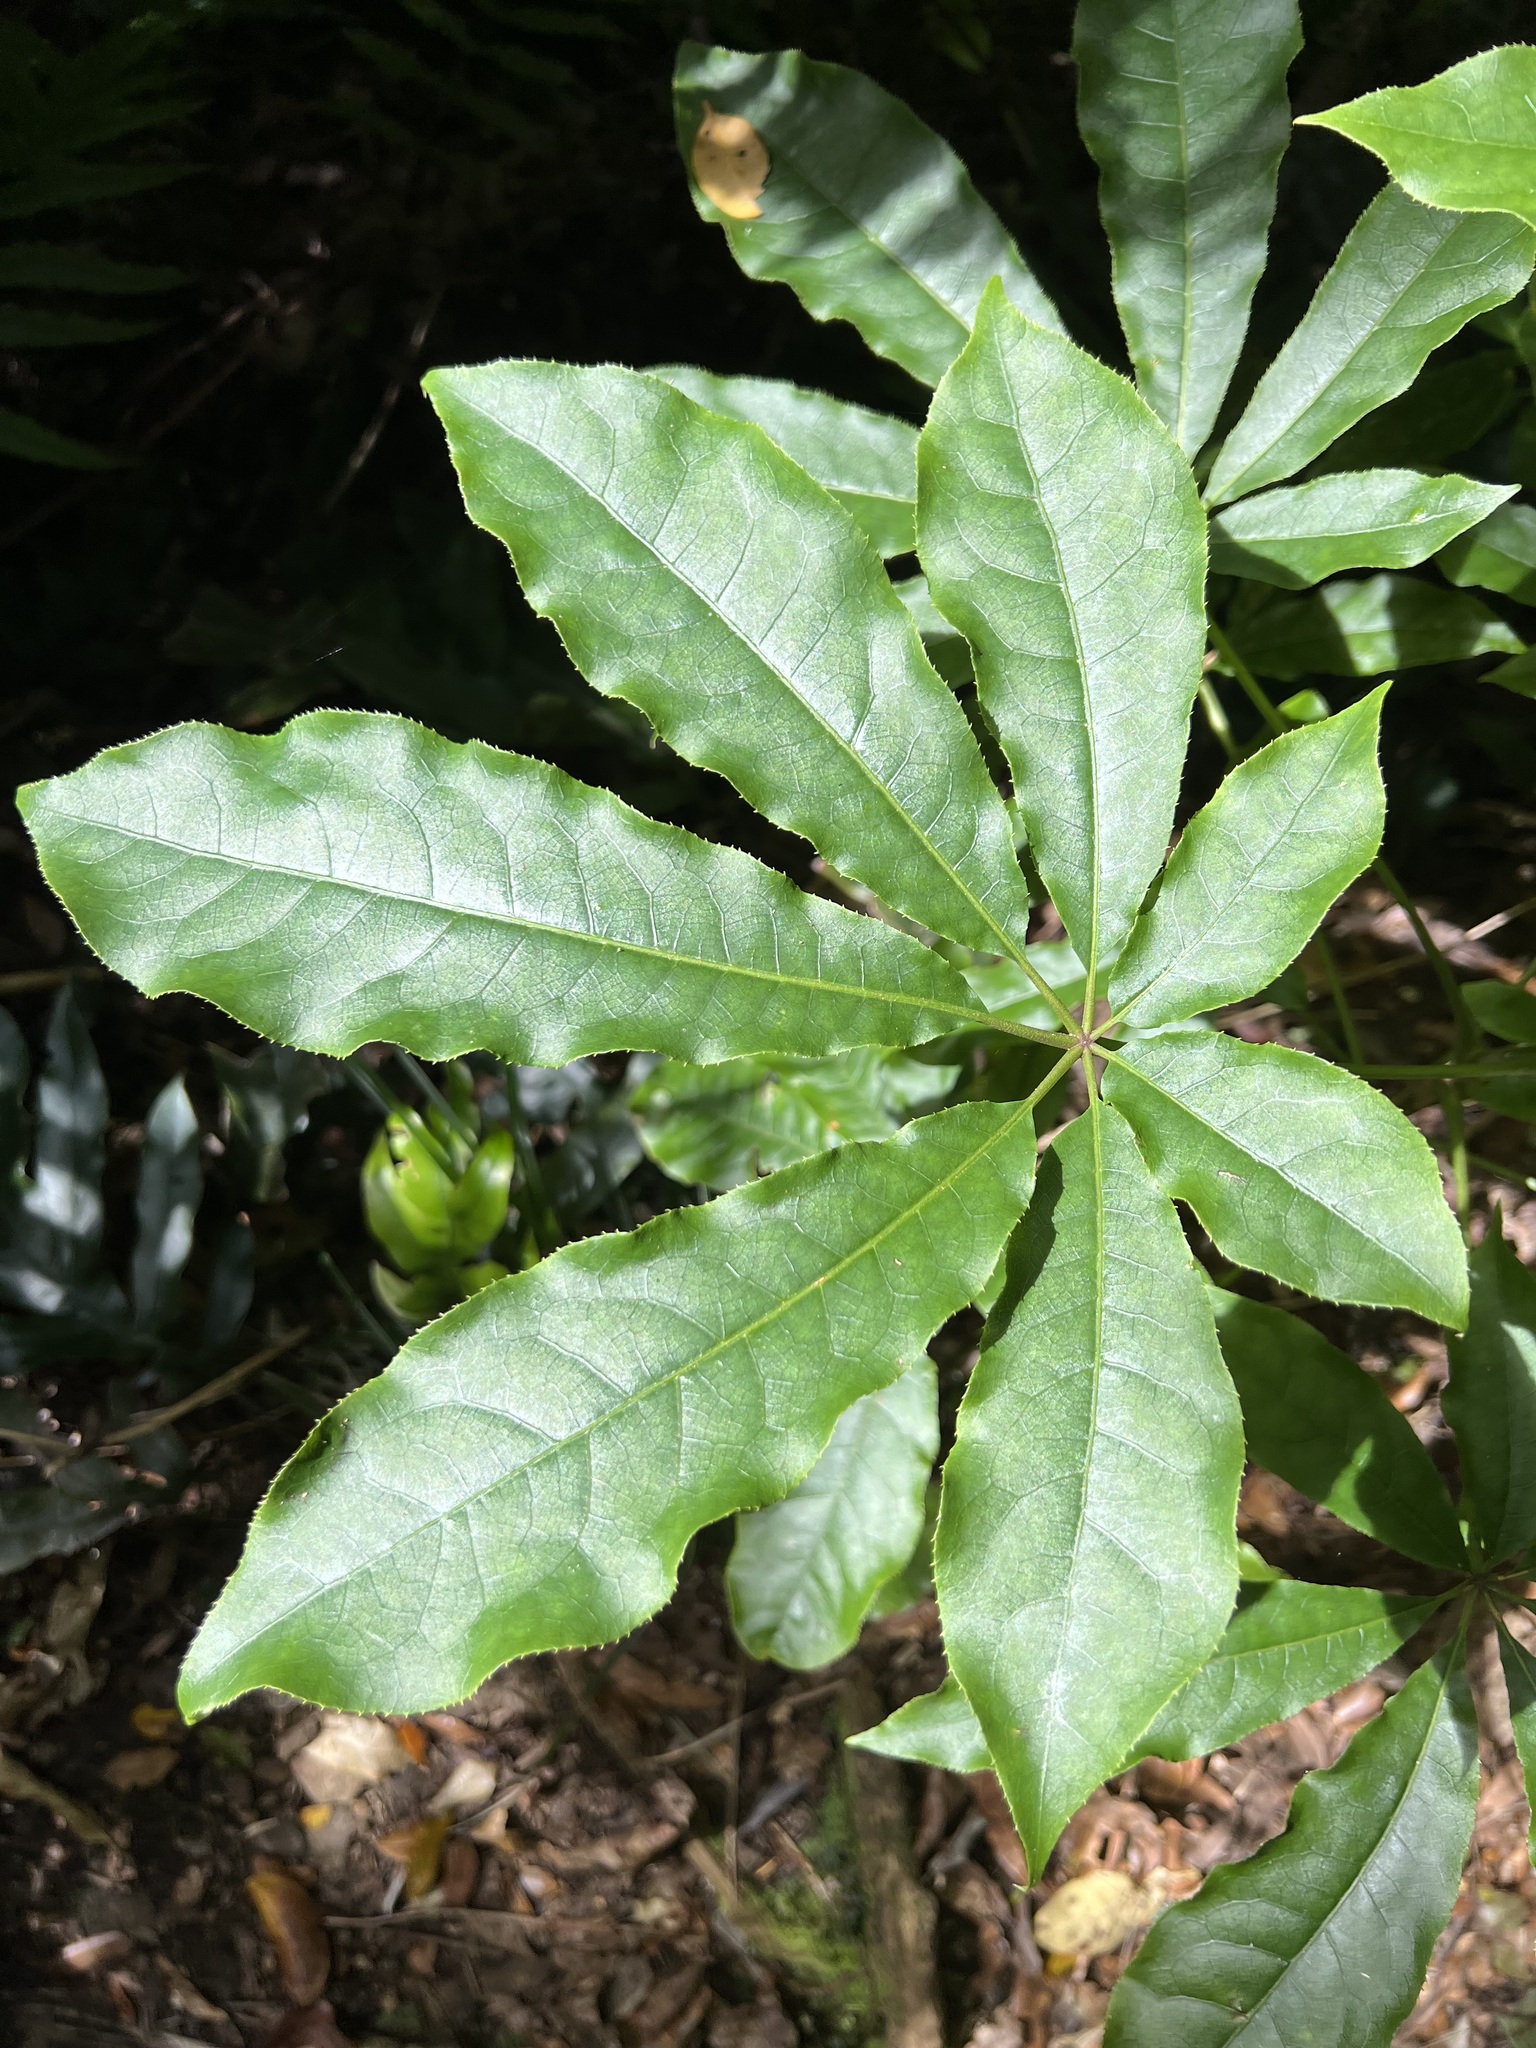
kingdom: Plantae
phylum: Tracheophyta
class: Magnoliopsida
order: Apiales
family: Araliaceae
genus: Schefflera
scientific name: Schefflera digitata
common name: Pate
